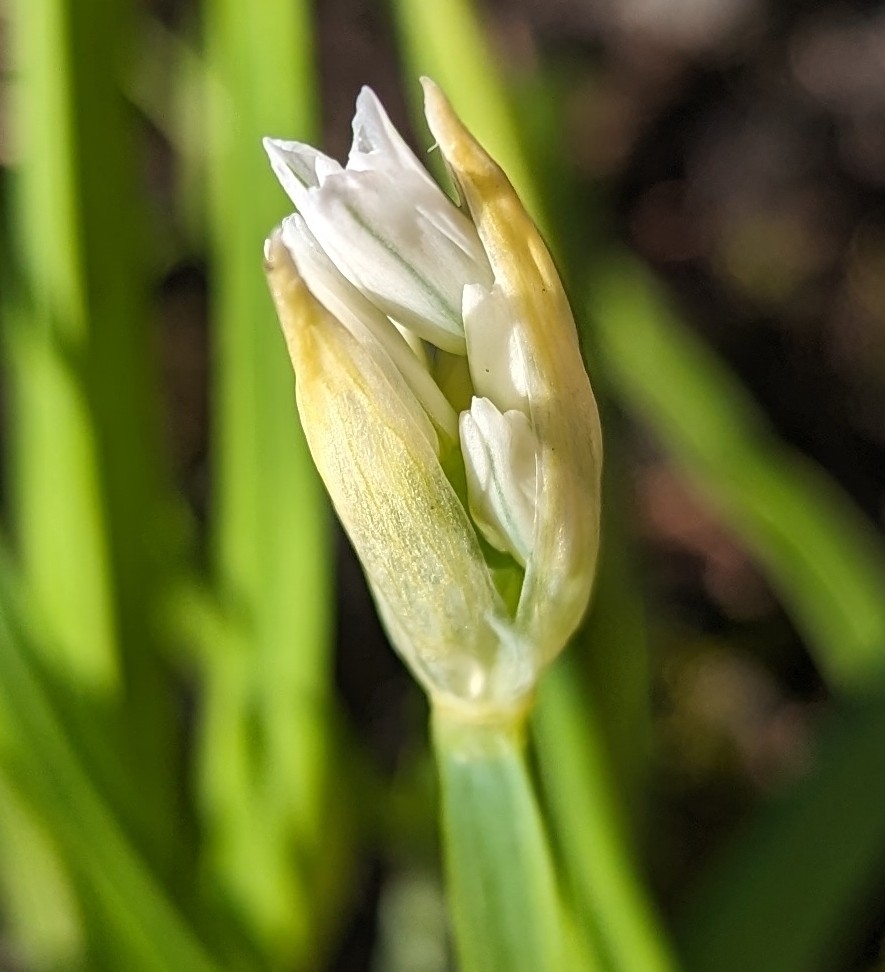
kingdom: Plantae
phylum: Tracheophyta
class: Liliopsida
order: Asparagales
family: Amaryllidaceae
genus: Allium
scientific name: Allium triquetrum
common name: Three-cornered garlic
